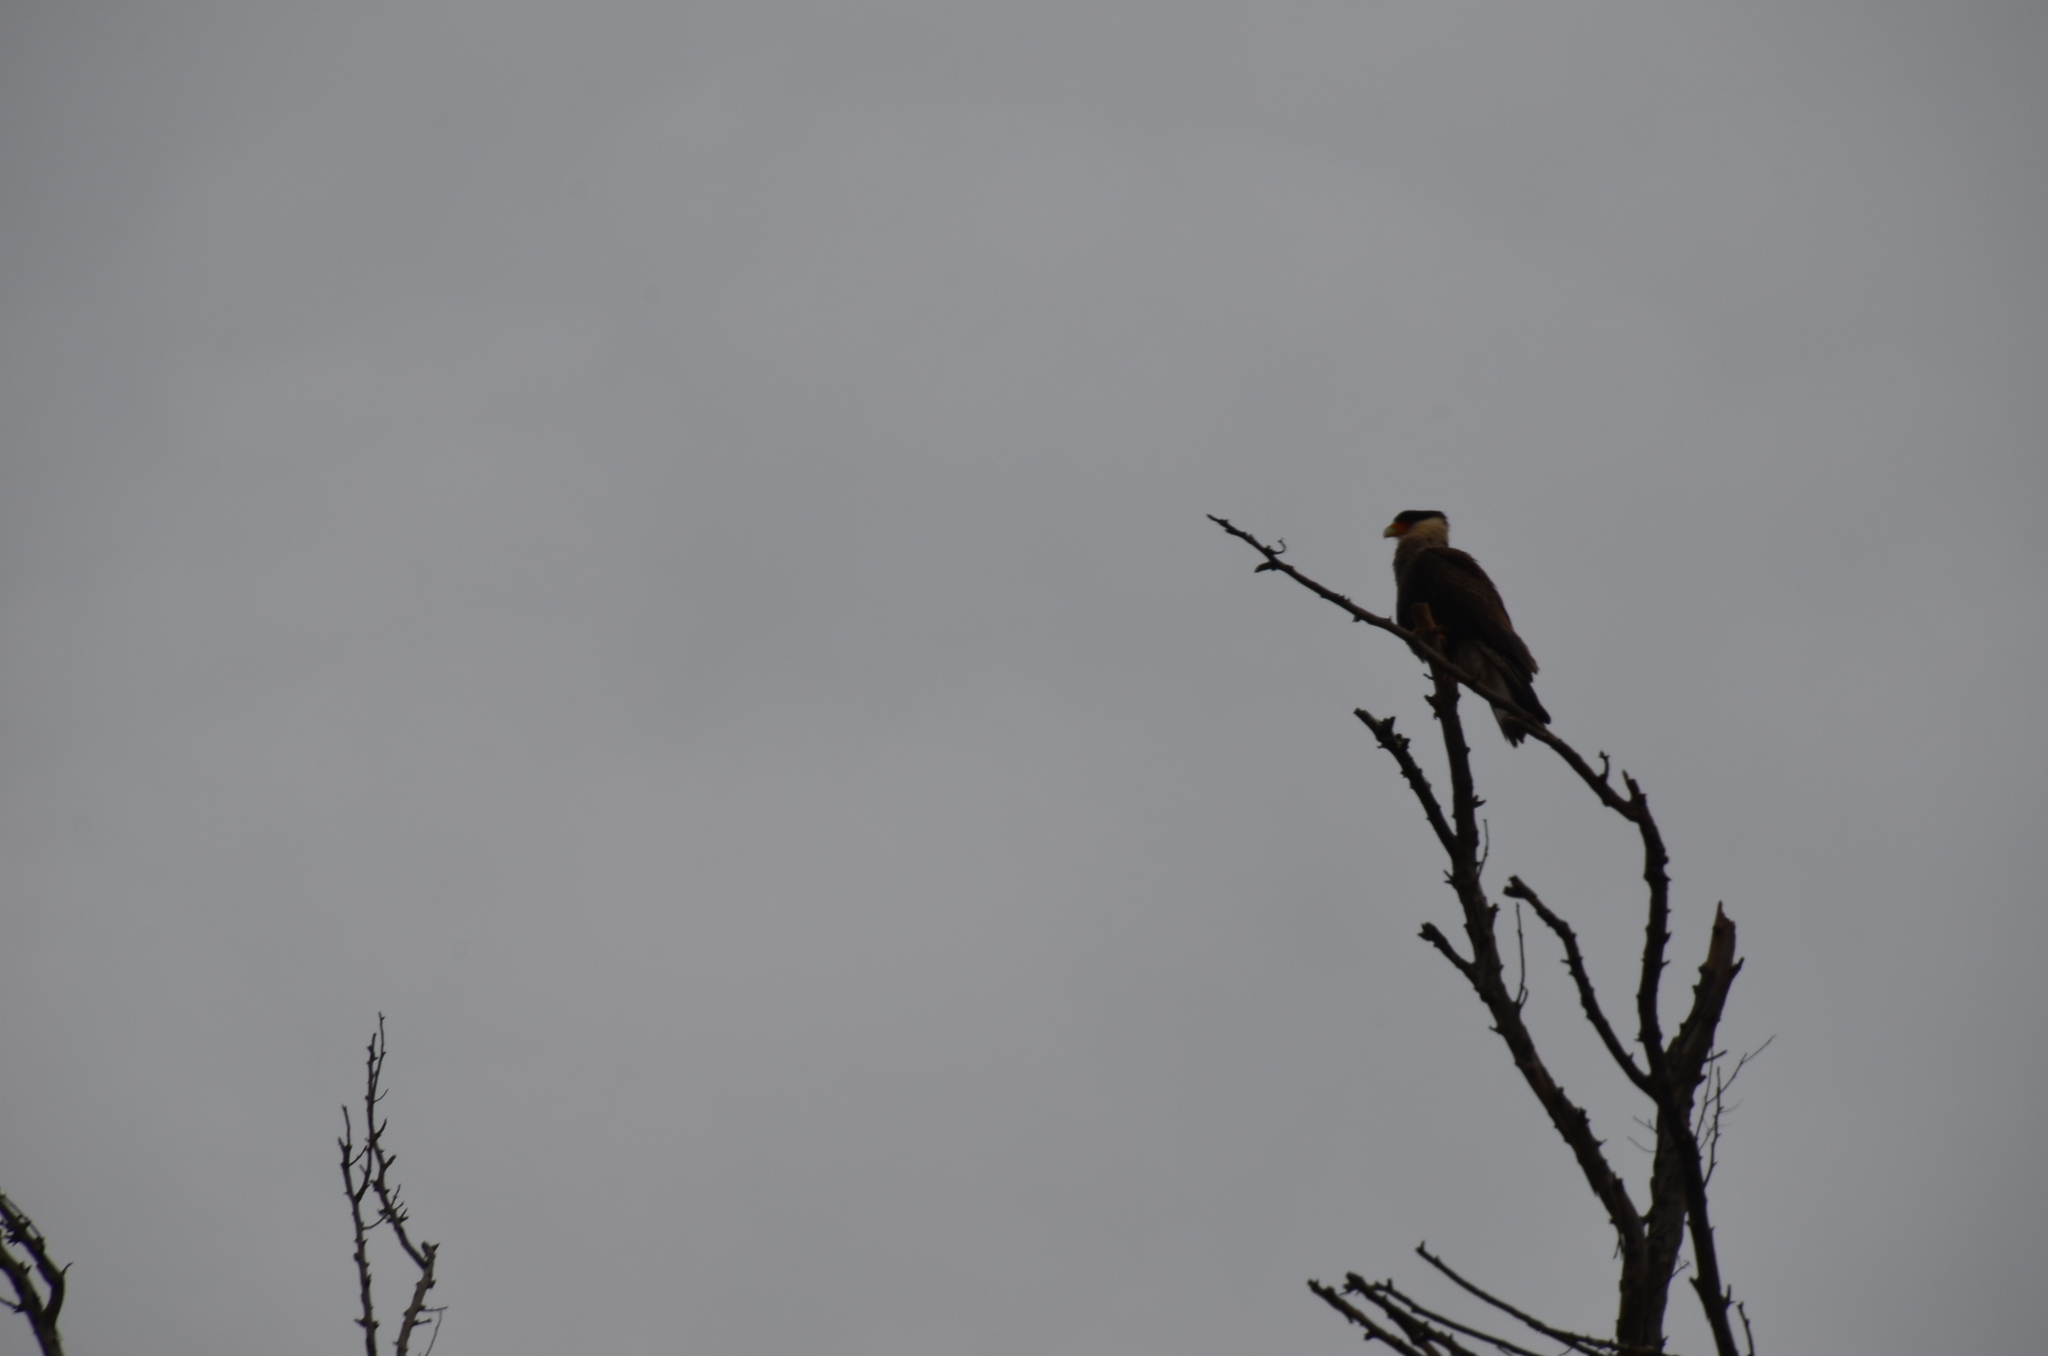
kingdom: Animalia
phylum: Chordata
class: Aves
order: Falconiformes
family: Falconidae
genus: Caracara
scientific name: Caracara plancus
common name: Southern caracara
